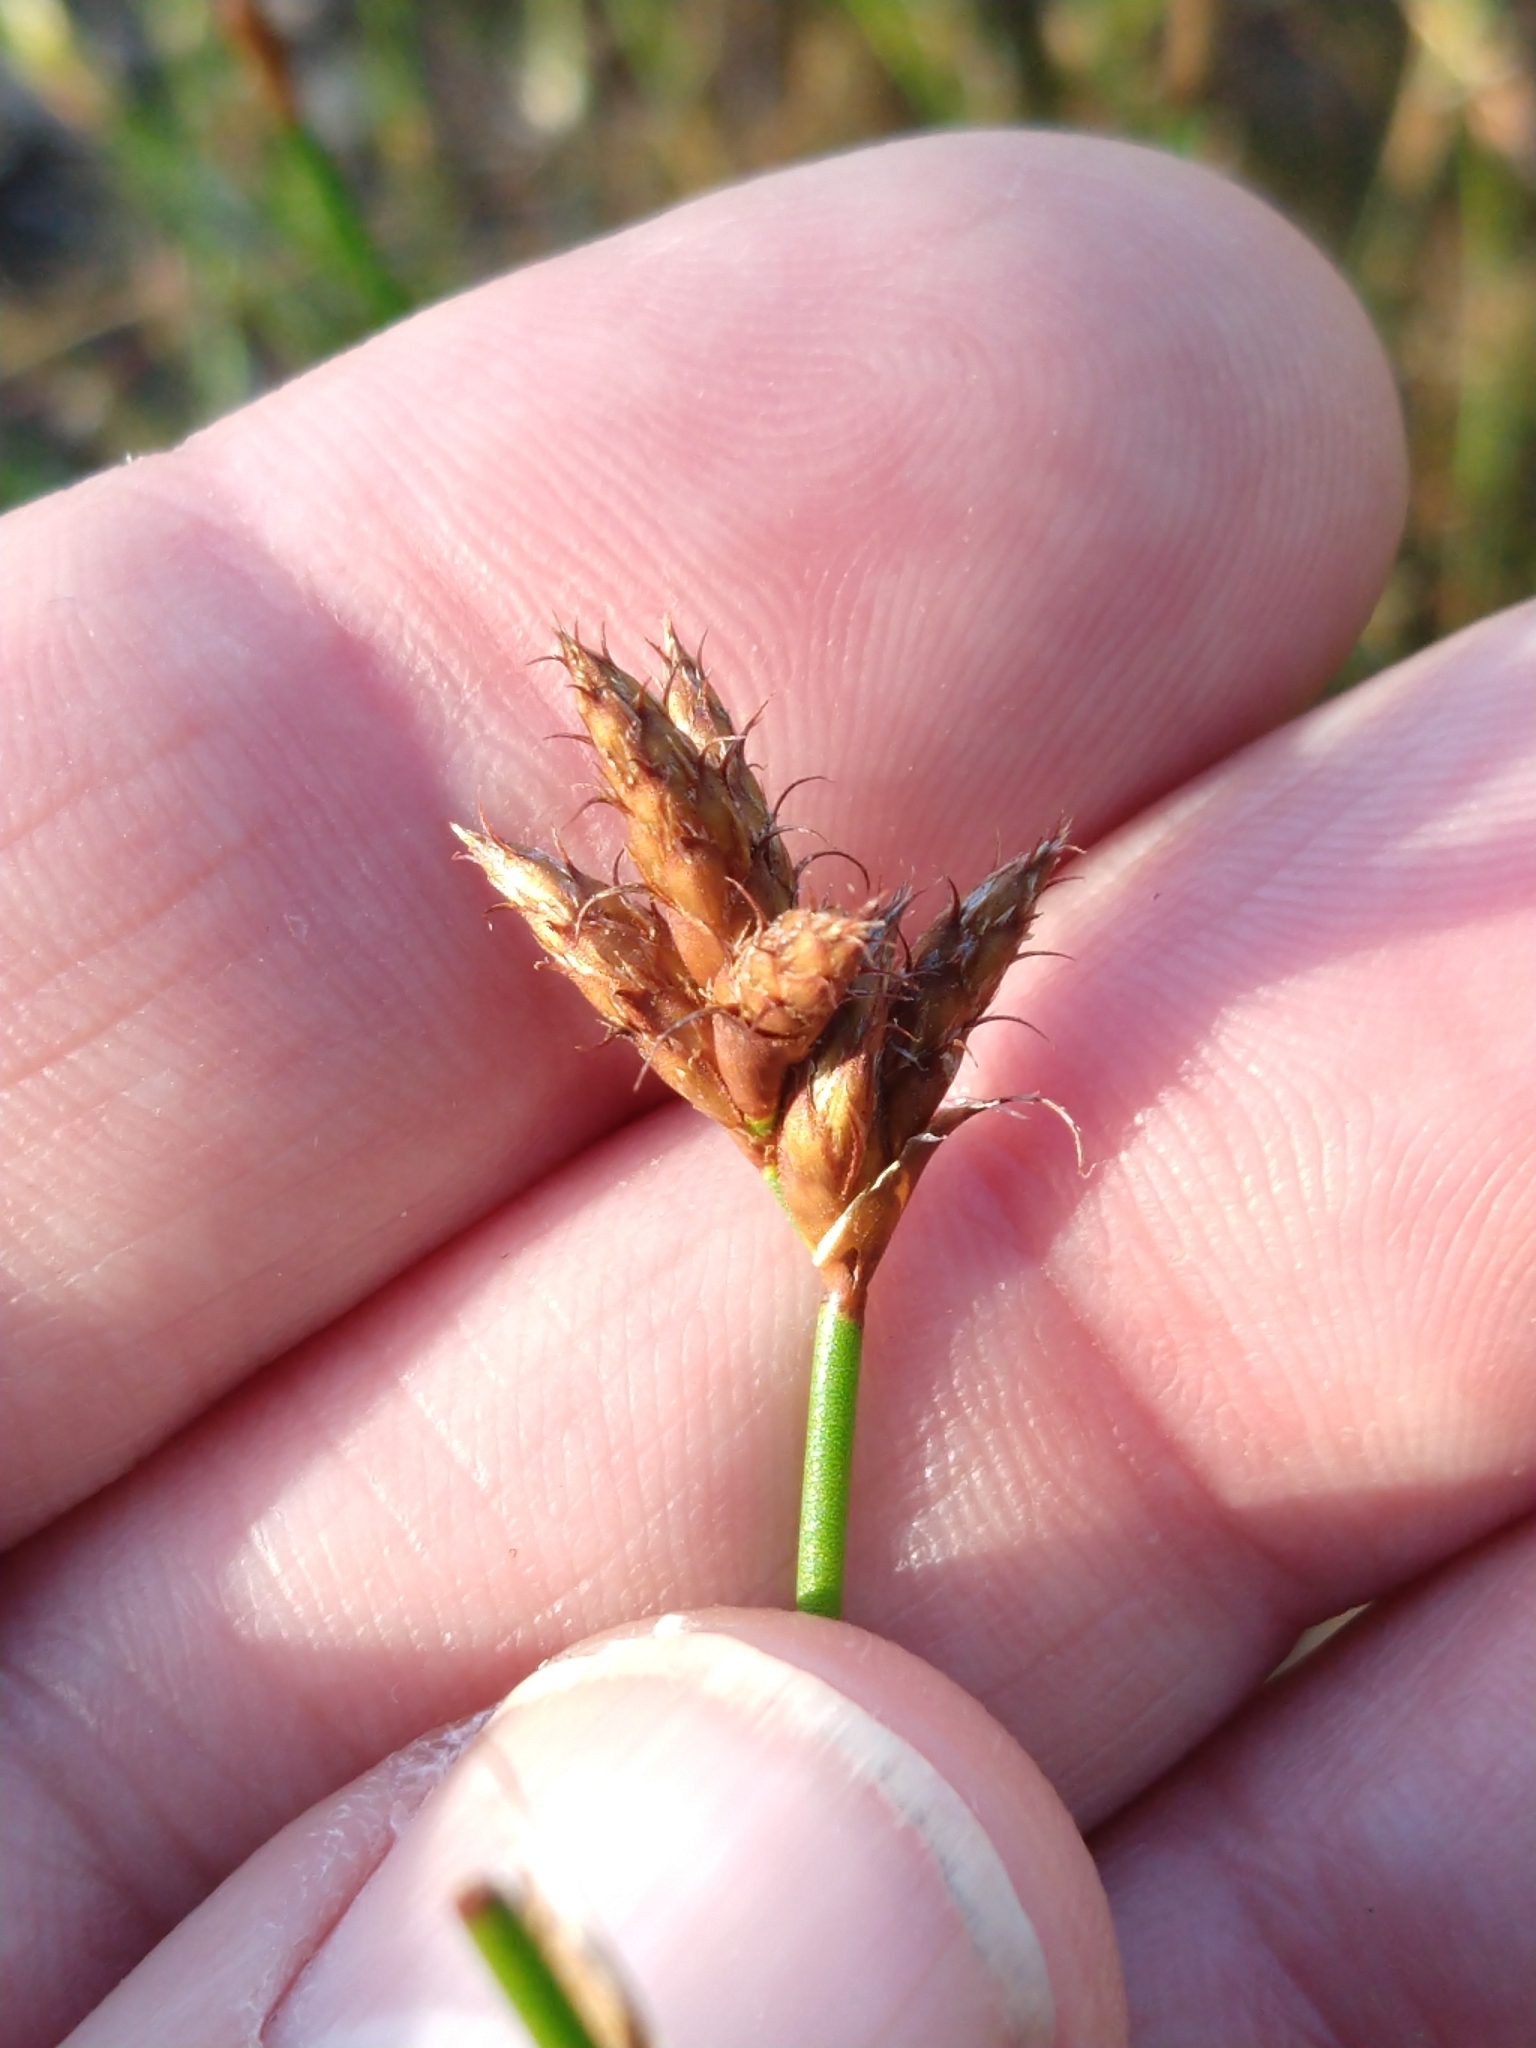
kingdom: Plantae
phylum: Tracheophyta
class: Liliopsida
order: Poales
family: Restionaceae
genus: Restio
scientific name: Restio capensis
